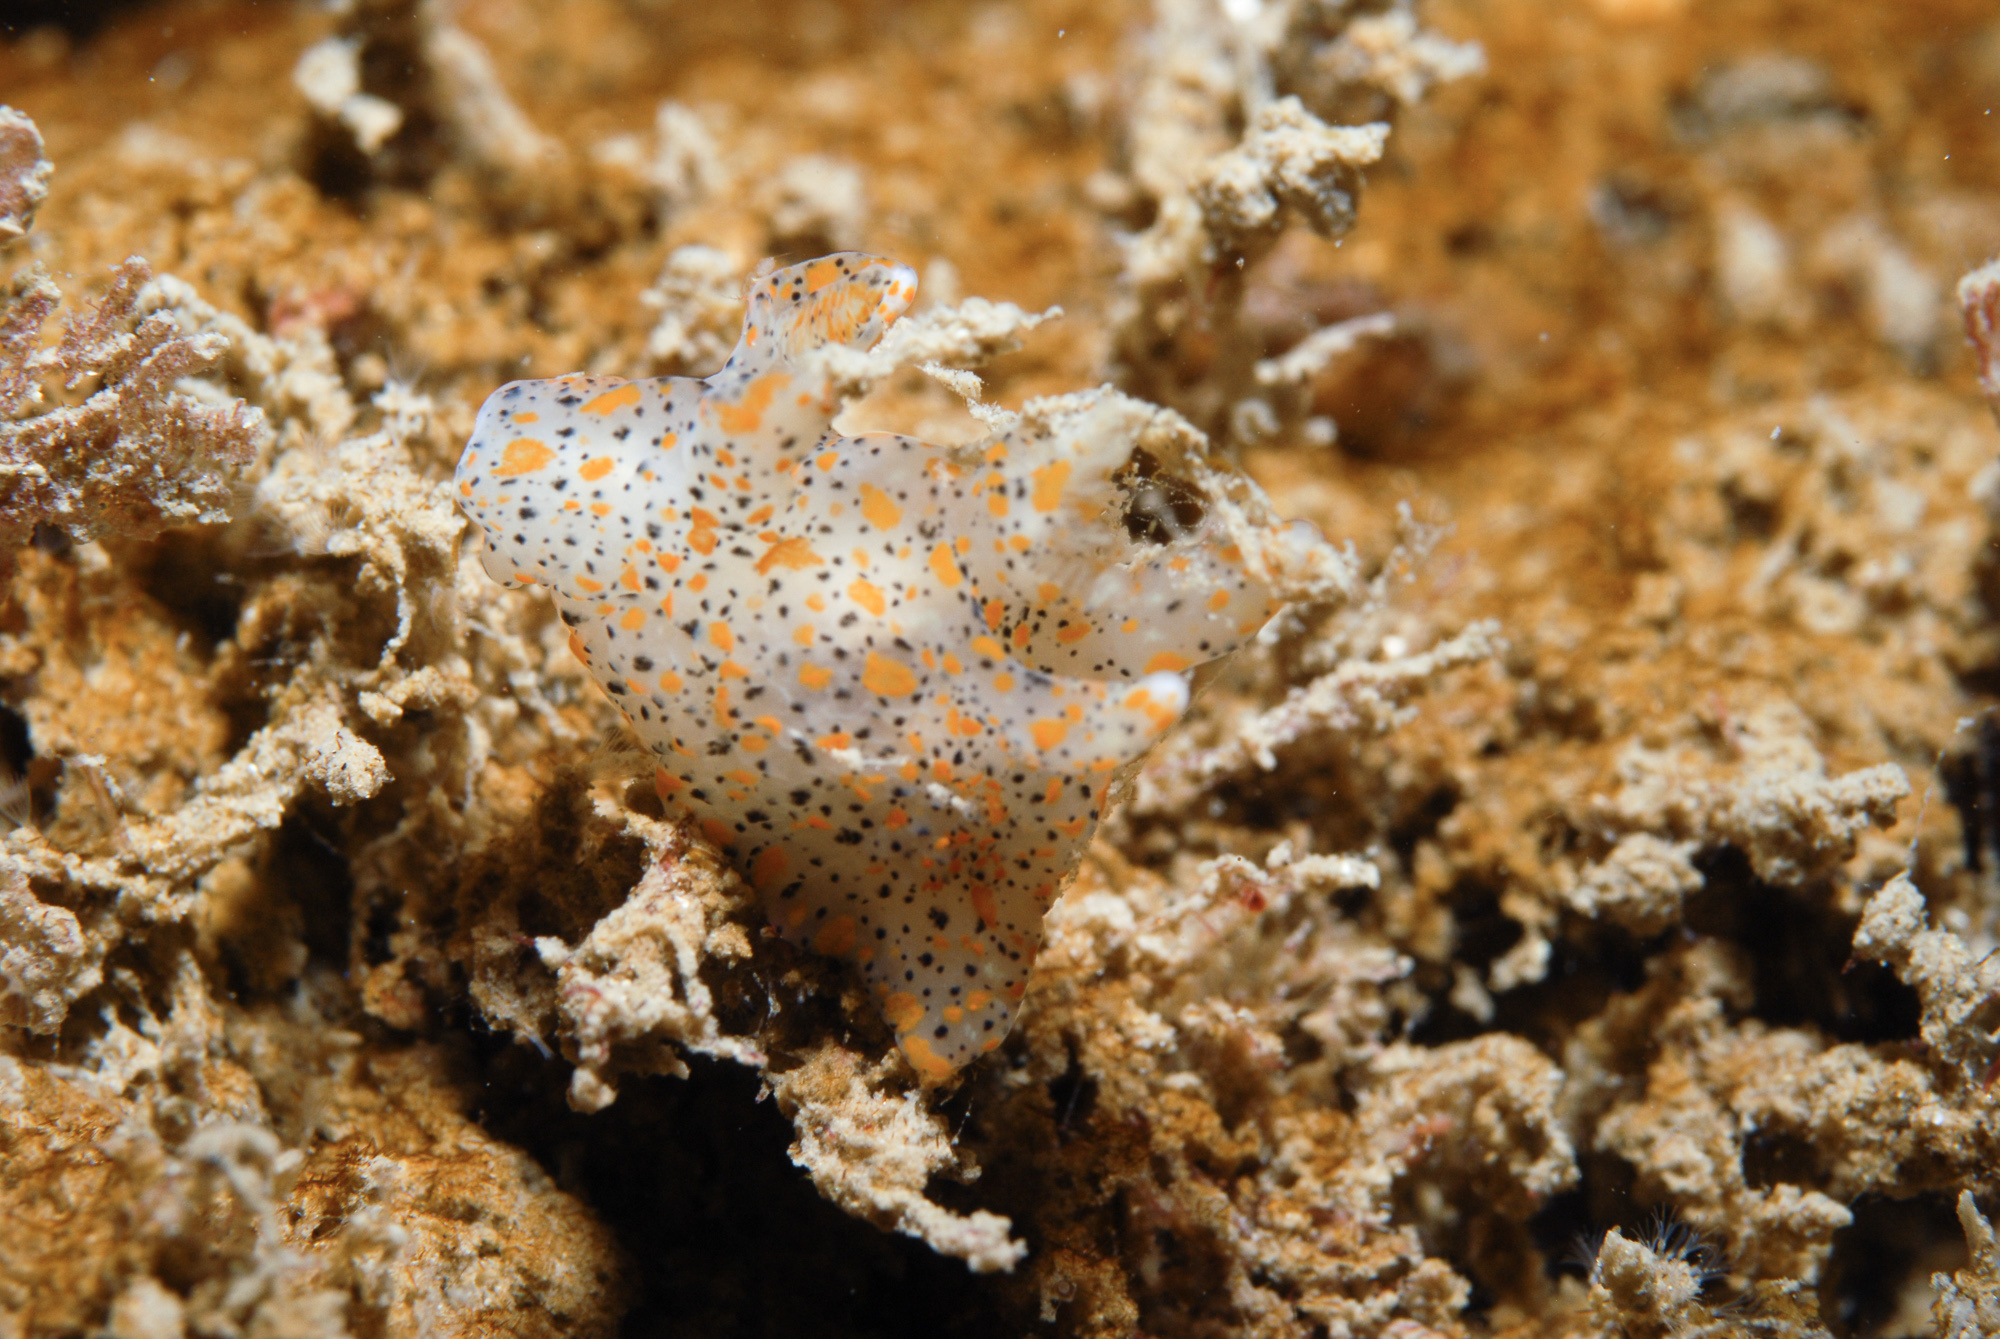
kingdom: Animalia
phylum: Mollusca
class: Gastropoda
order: Nudibranchia
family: Polyceridae
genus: Thecacera
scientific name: Thecacera pennigera
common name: Thecacera
